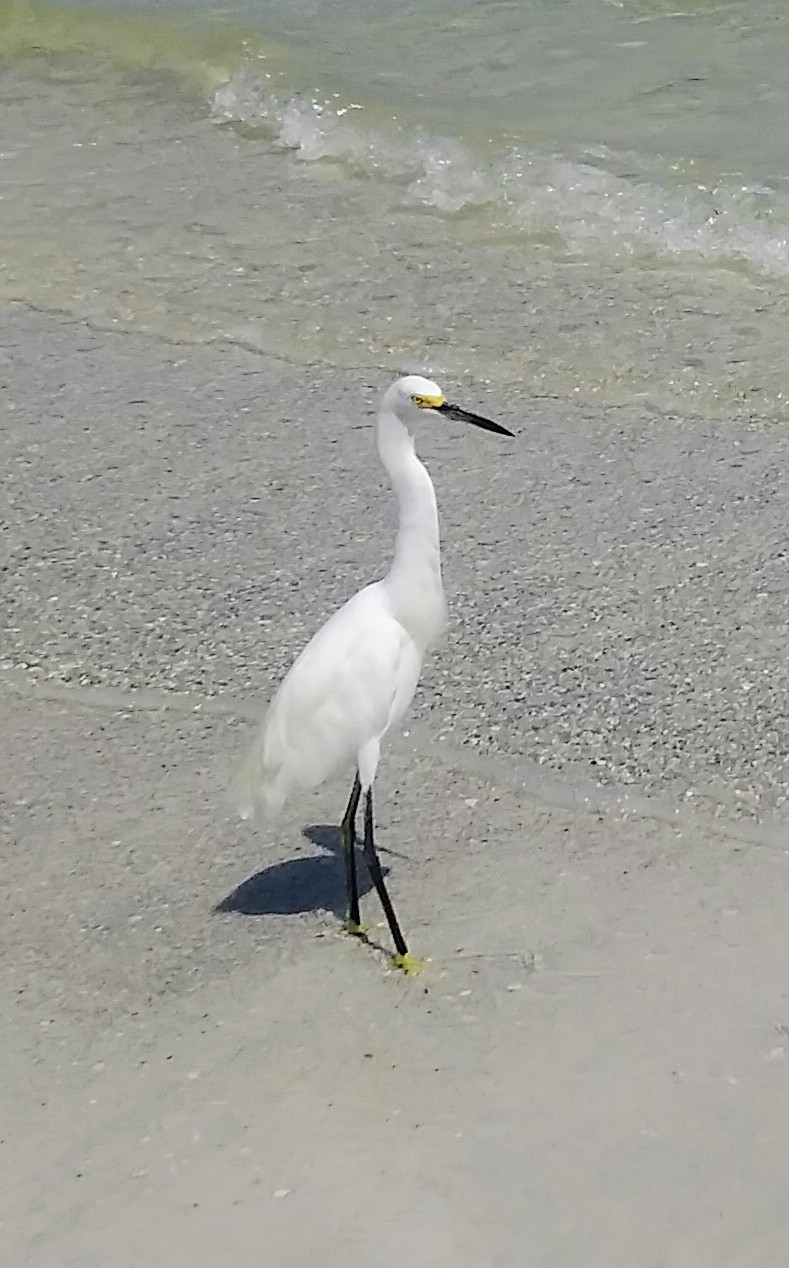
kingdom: Animalia
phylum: Chordata
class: Aves
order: Pelecaniformes
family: Ardeidae
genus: Egretta
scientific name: Egretta thula
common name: Snowy egret
